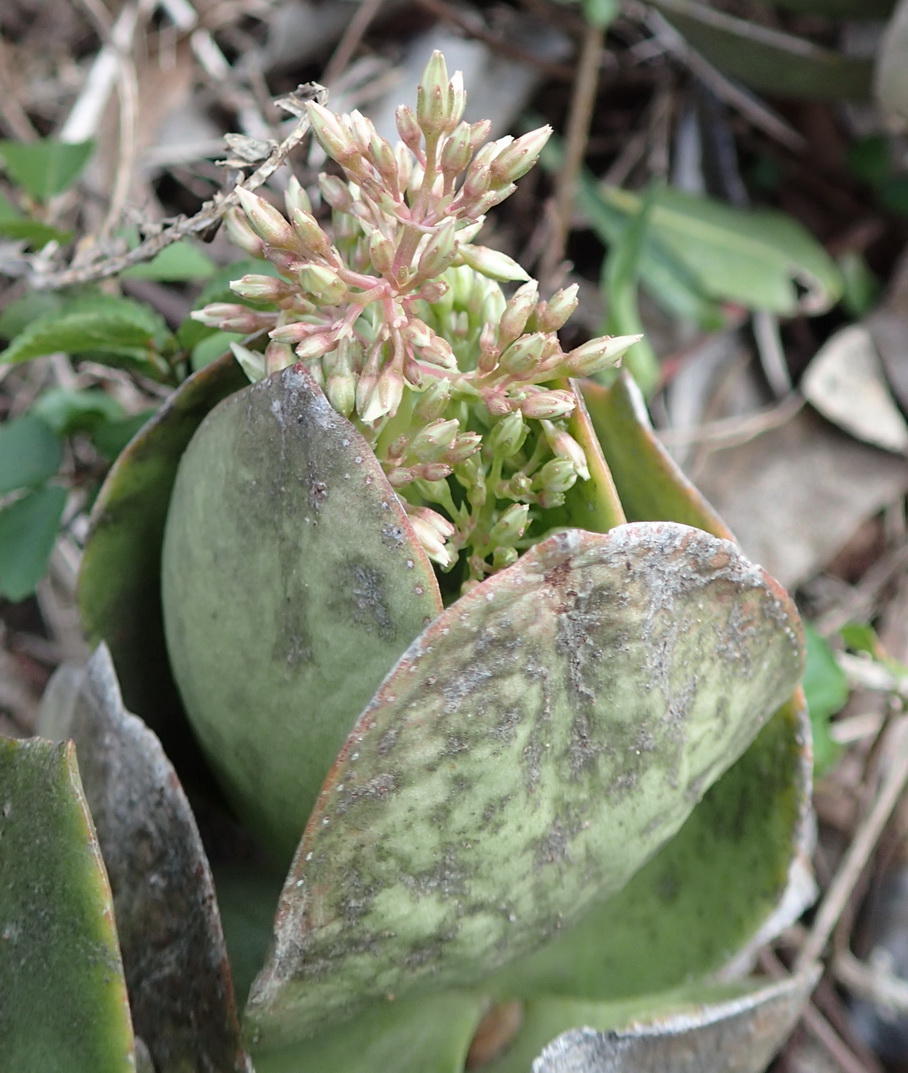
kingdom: Plantae
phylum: Tracheophyta
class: Magnoliopsida
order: Saxifragales
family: Crassulaceae
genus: Crassula
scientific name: Crassula lactea
